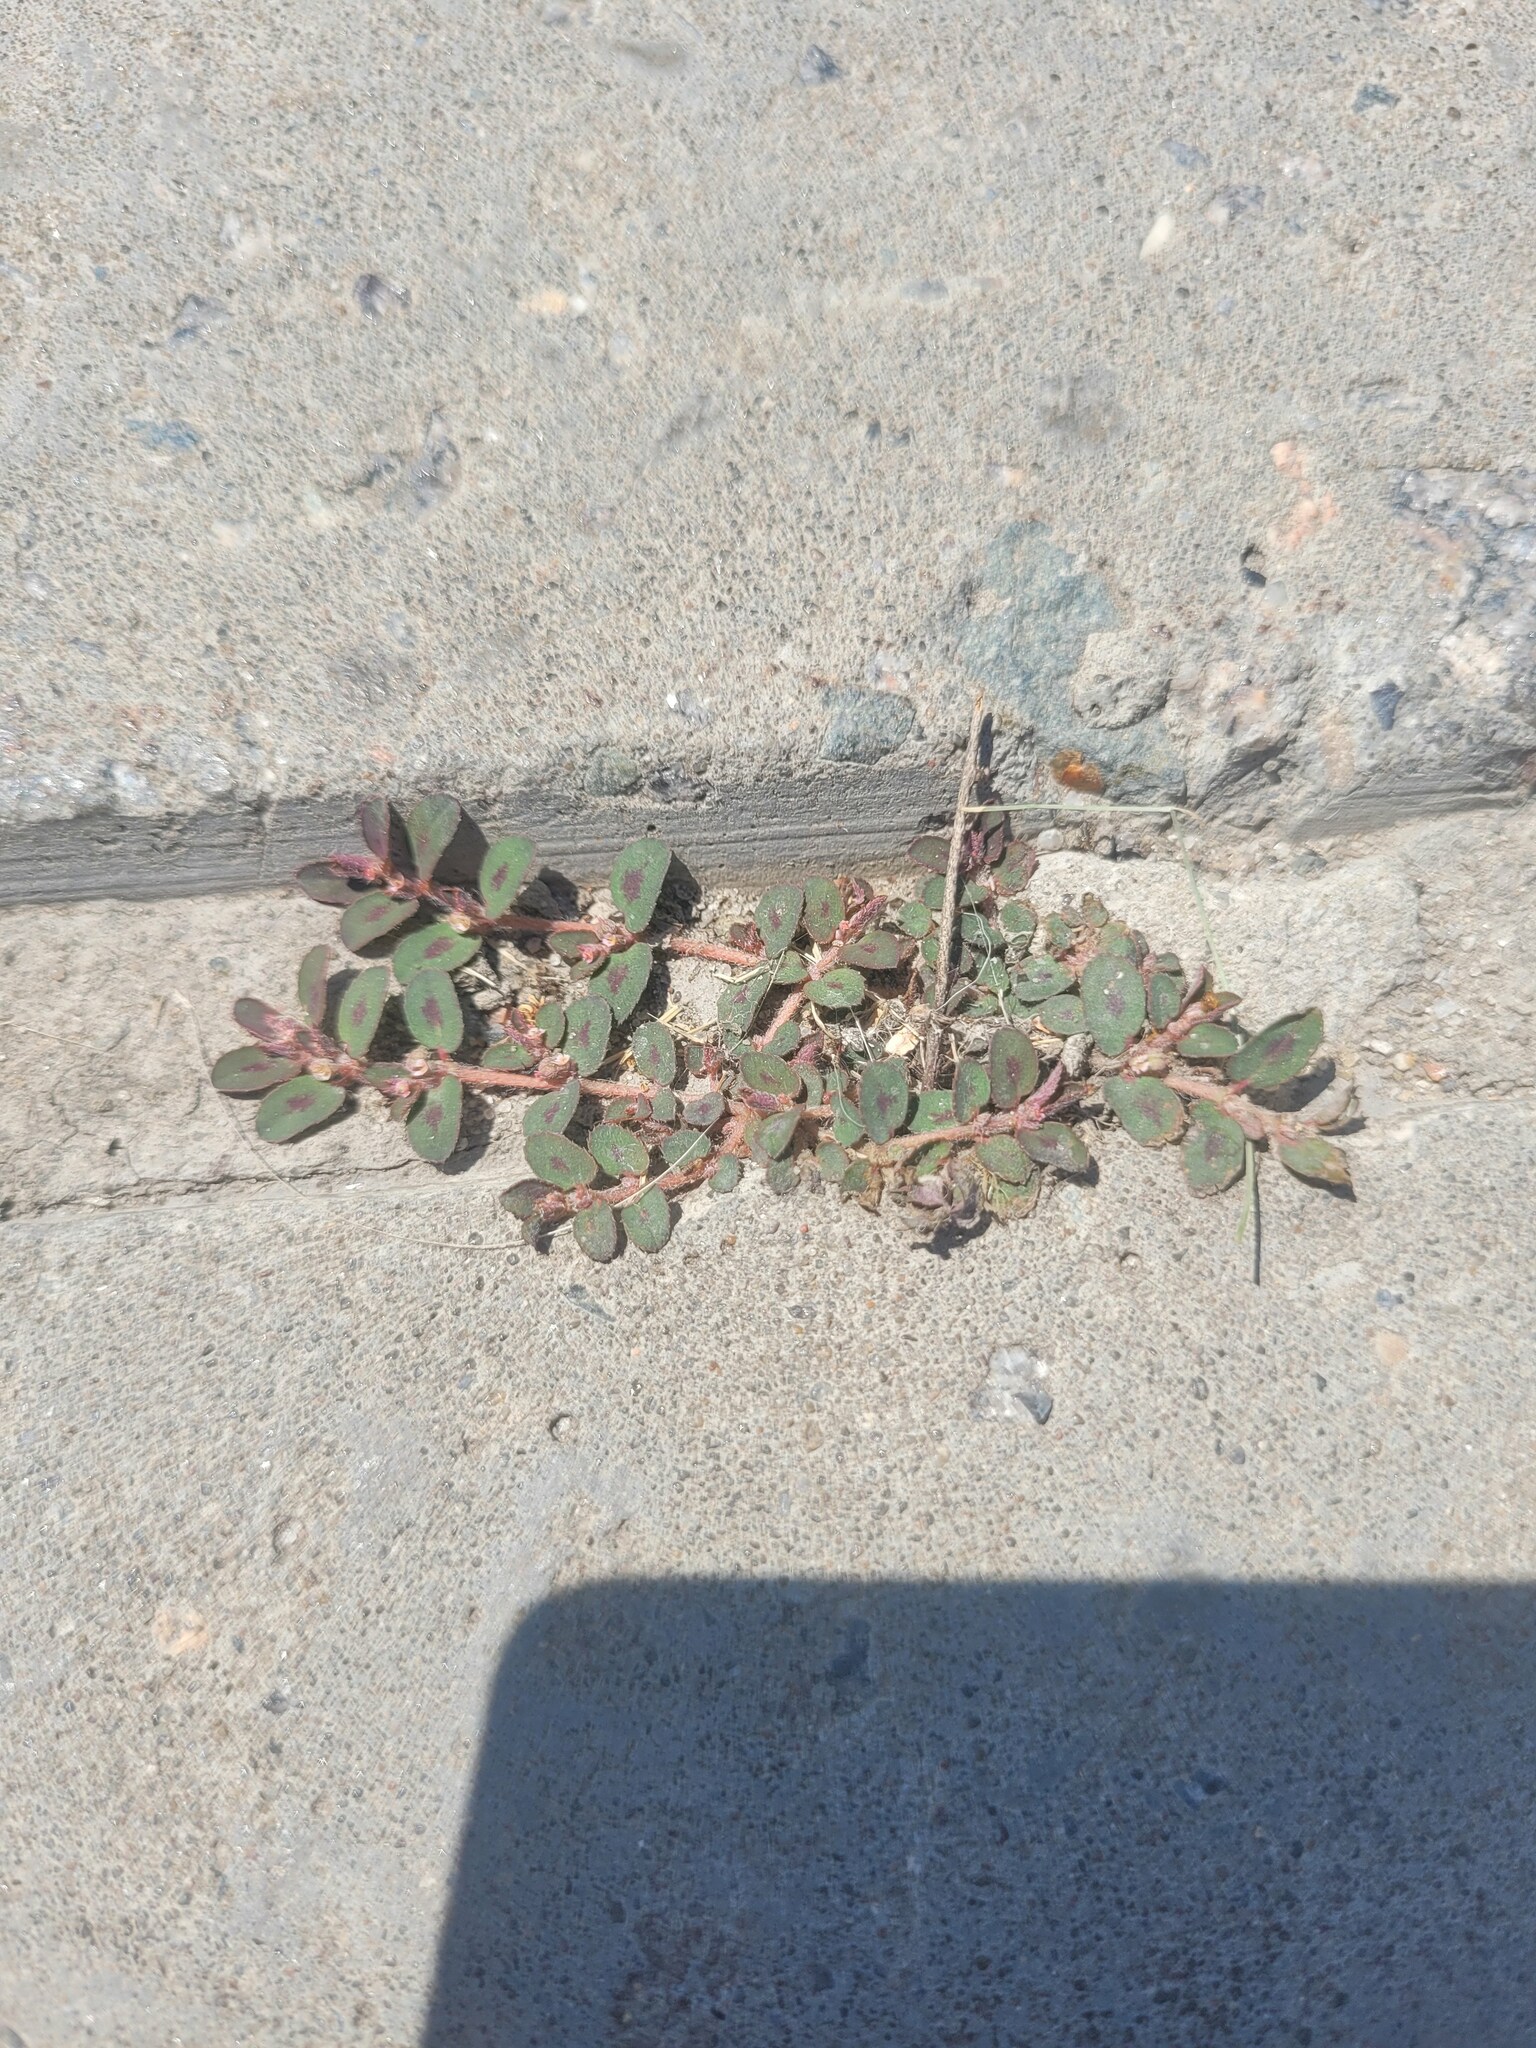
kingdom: Plantae
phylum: Tracheophyta
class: Magnoliopsida
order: Malpighiales
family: Euphorbiaceae
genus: Euphorbia
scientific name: Euphorbia maculata
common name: Spotted spurge
